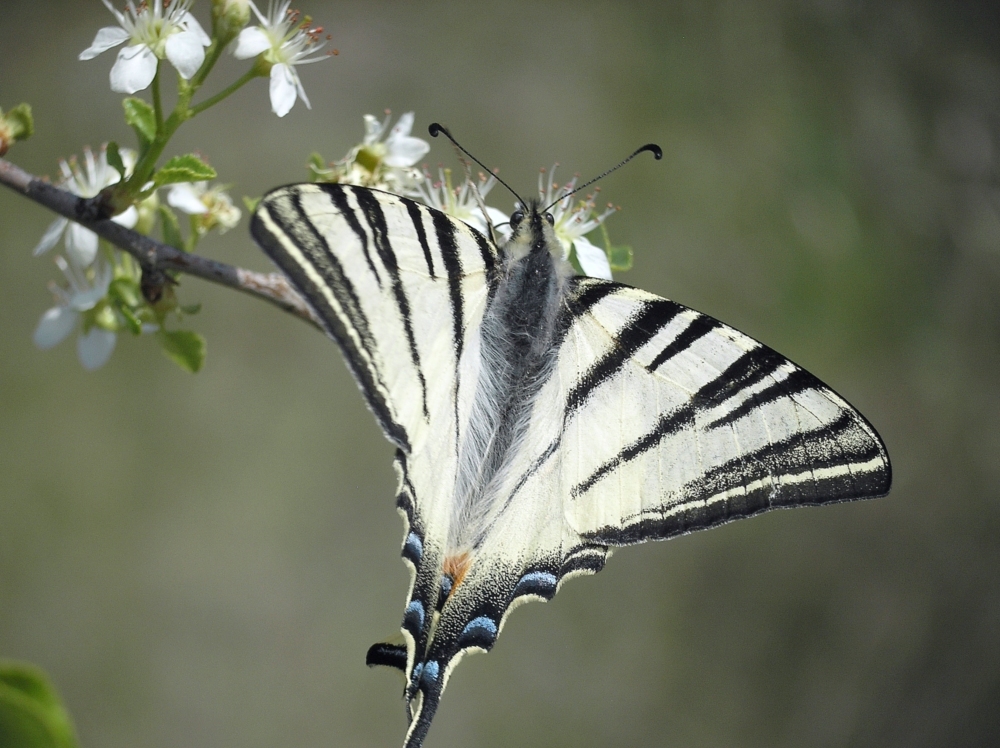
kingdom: Animalia
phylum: Arthropoda
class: Insecta
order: Lepidoptera
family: Papilionidae
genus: Iphiclides
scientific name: Iphiclides podalirius
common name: Scarce swallowtail
